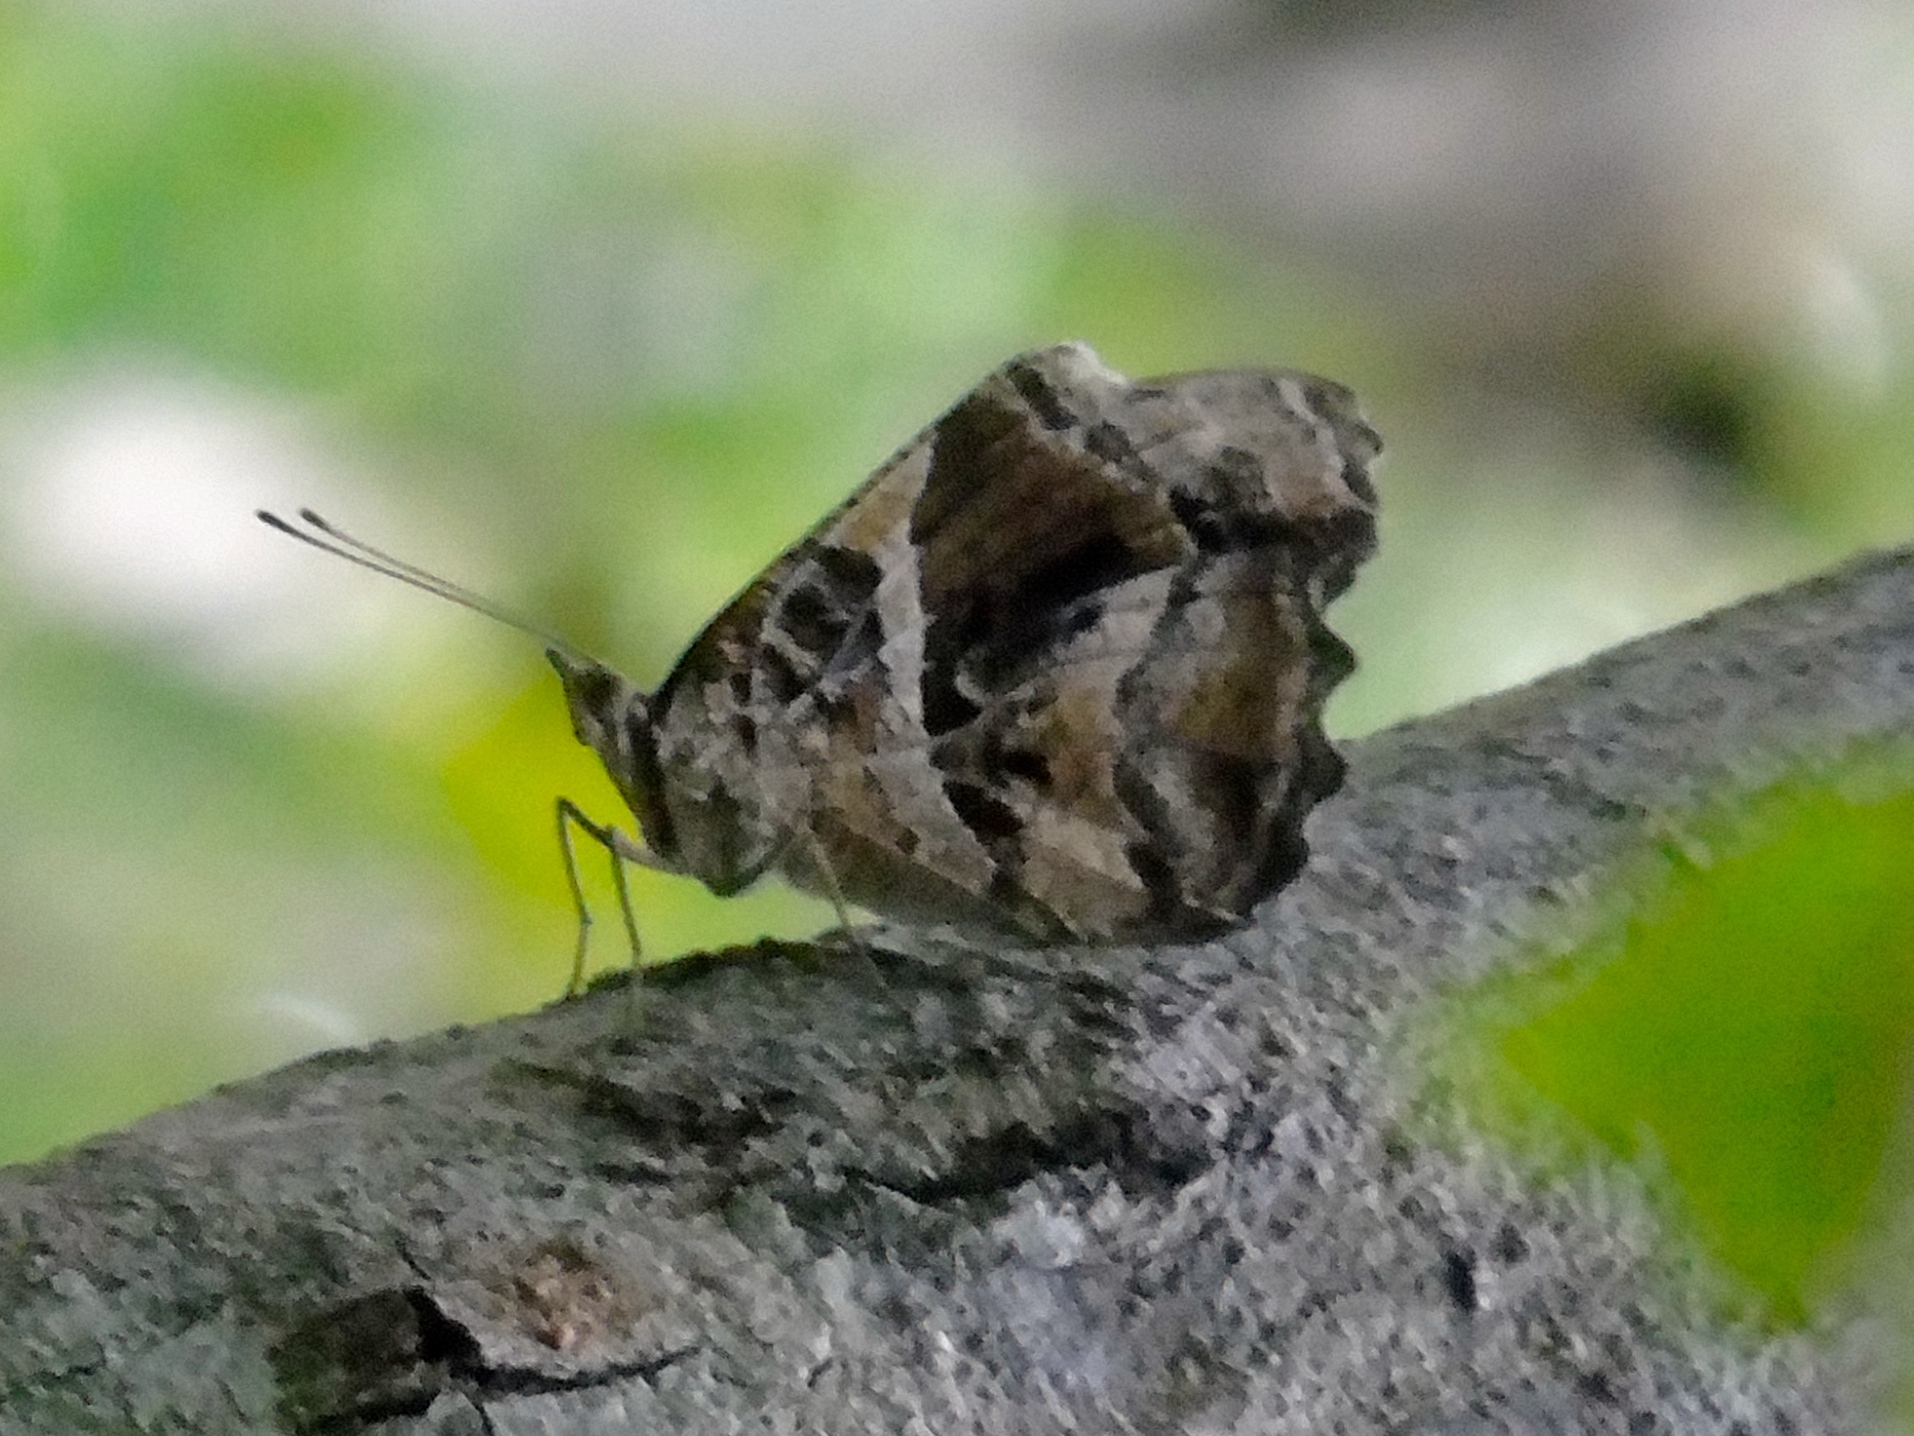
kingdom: Animalia
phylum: Arthropoda
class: Insecta
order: Lepidoptera
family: Nymphalidae
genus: Myscelia
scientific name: Myscelia cyananthe
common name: Blackened bluewing
